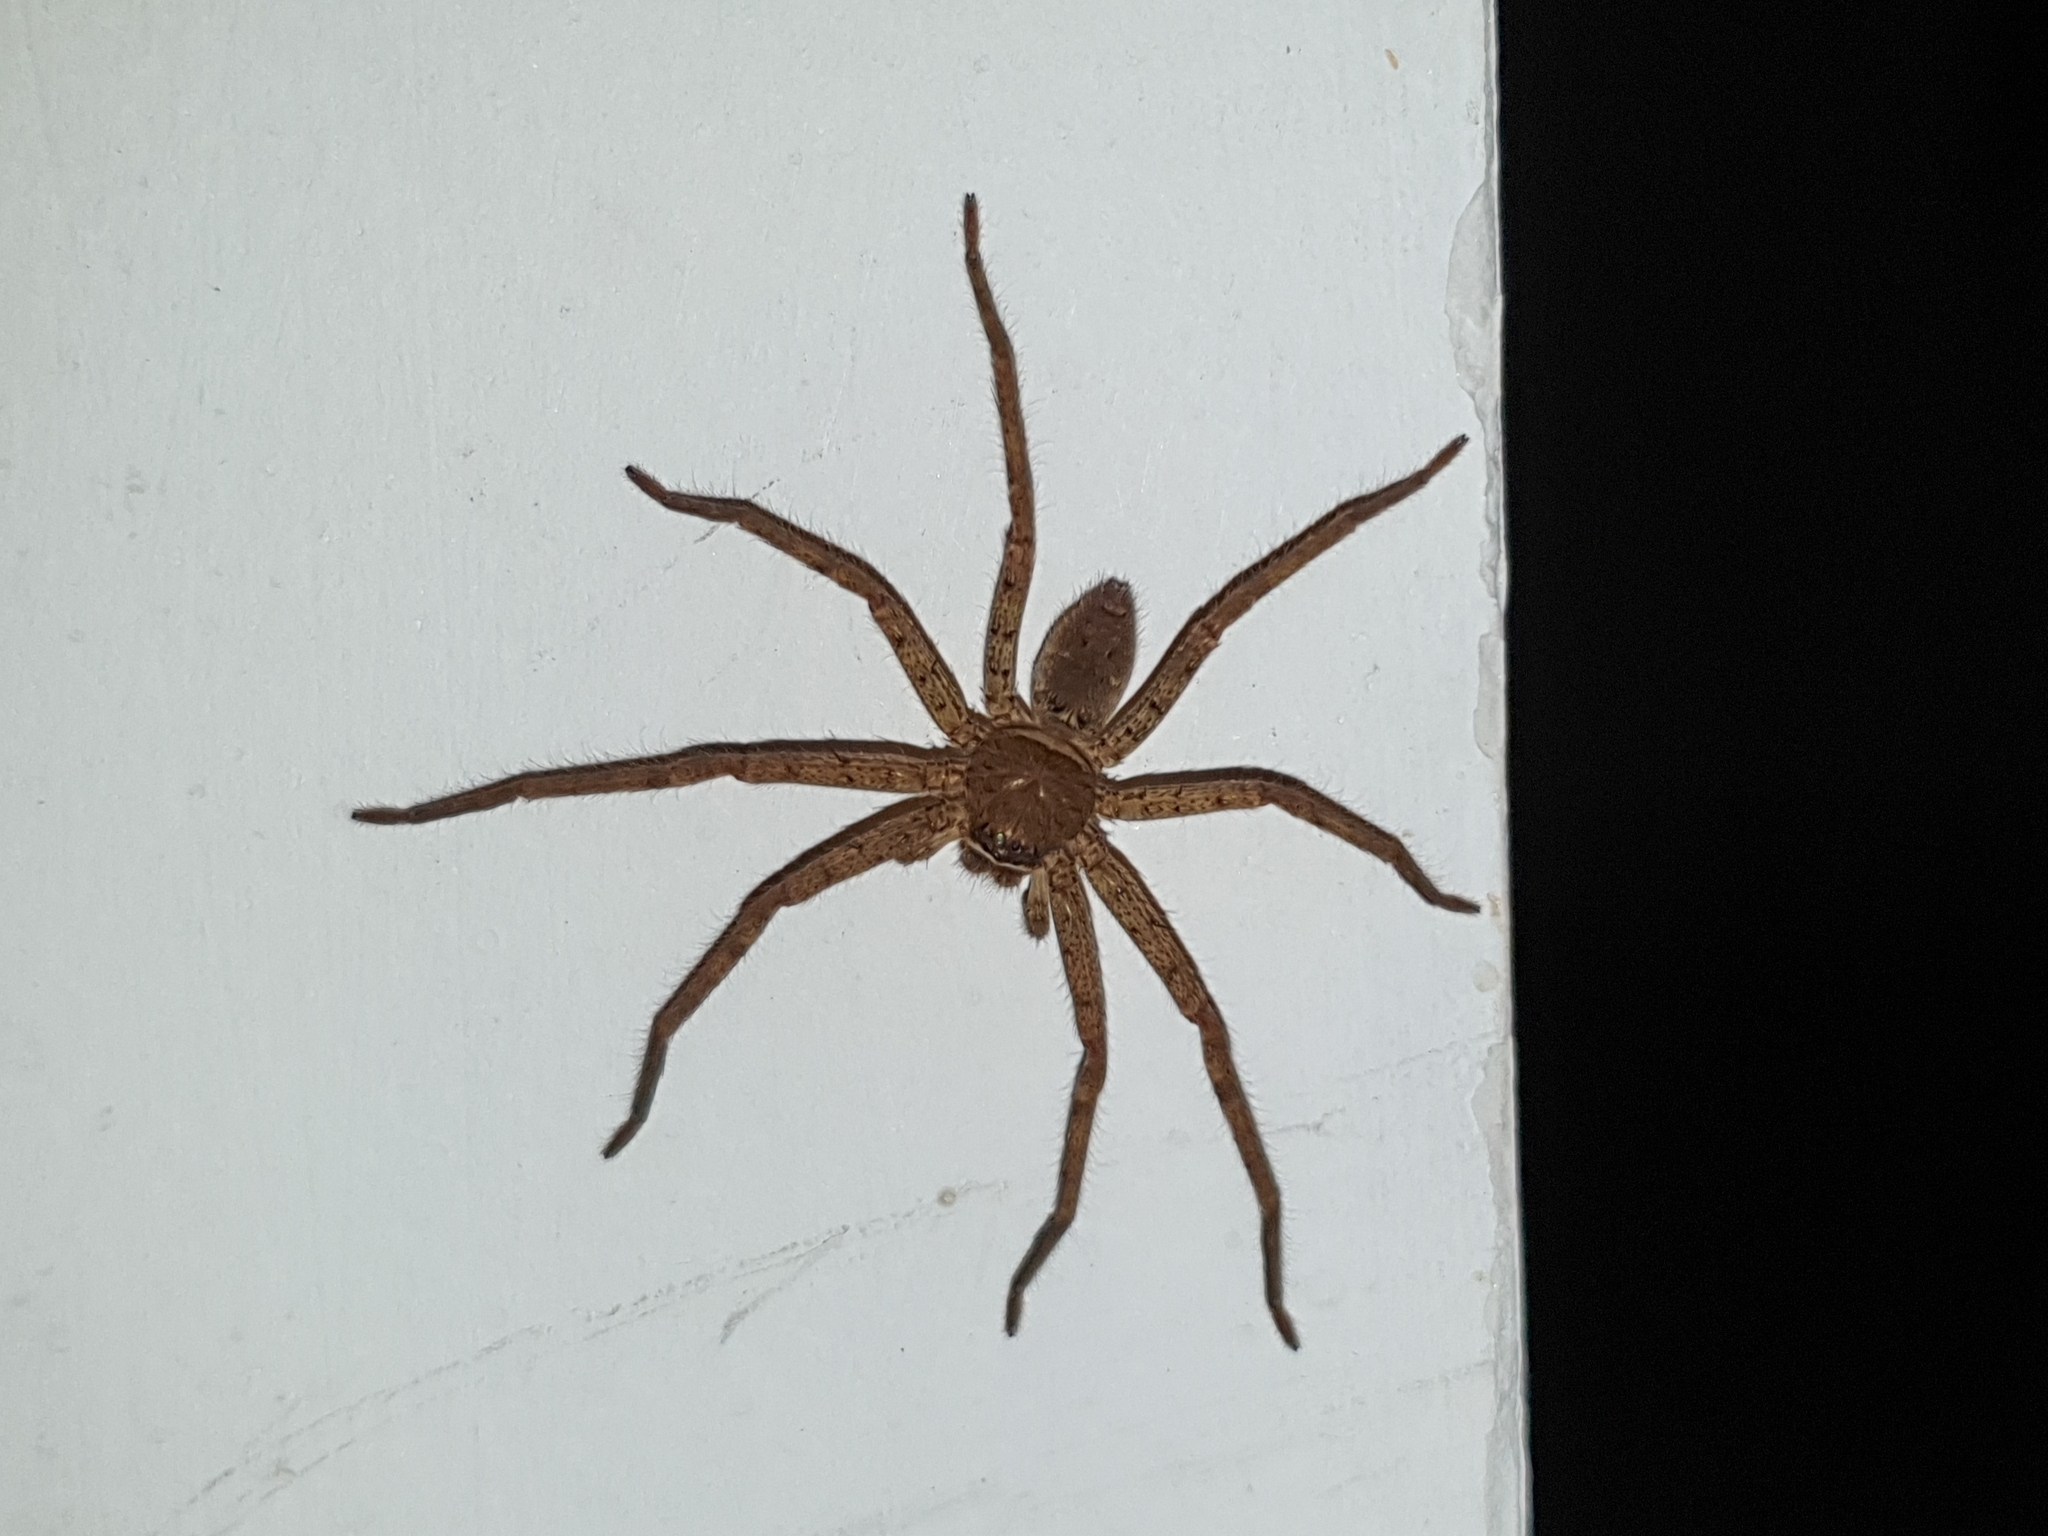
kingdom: Animalia
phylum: Arthropoda
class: Arachnida
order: Araneae
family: Sparassidae
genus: Heteropoda
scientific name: Heteropoda venatoria
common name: Huntsman spider
